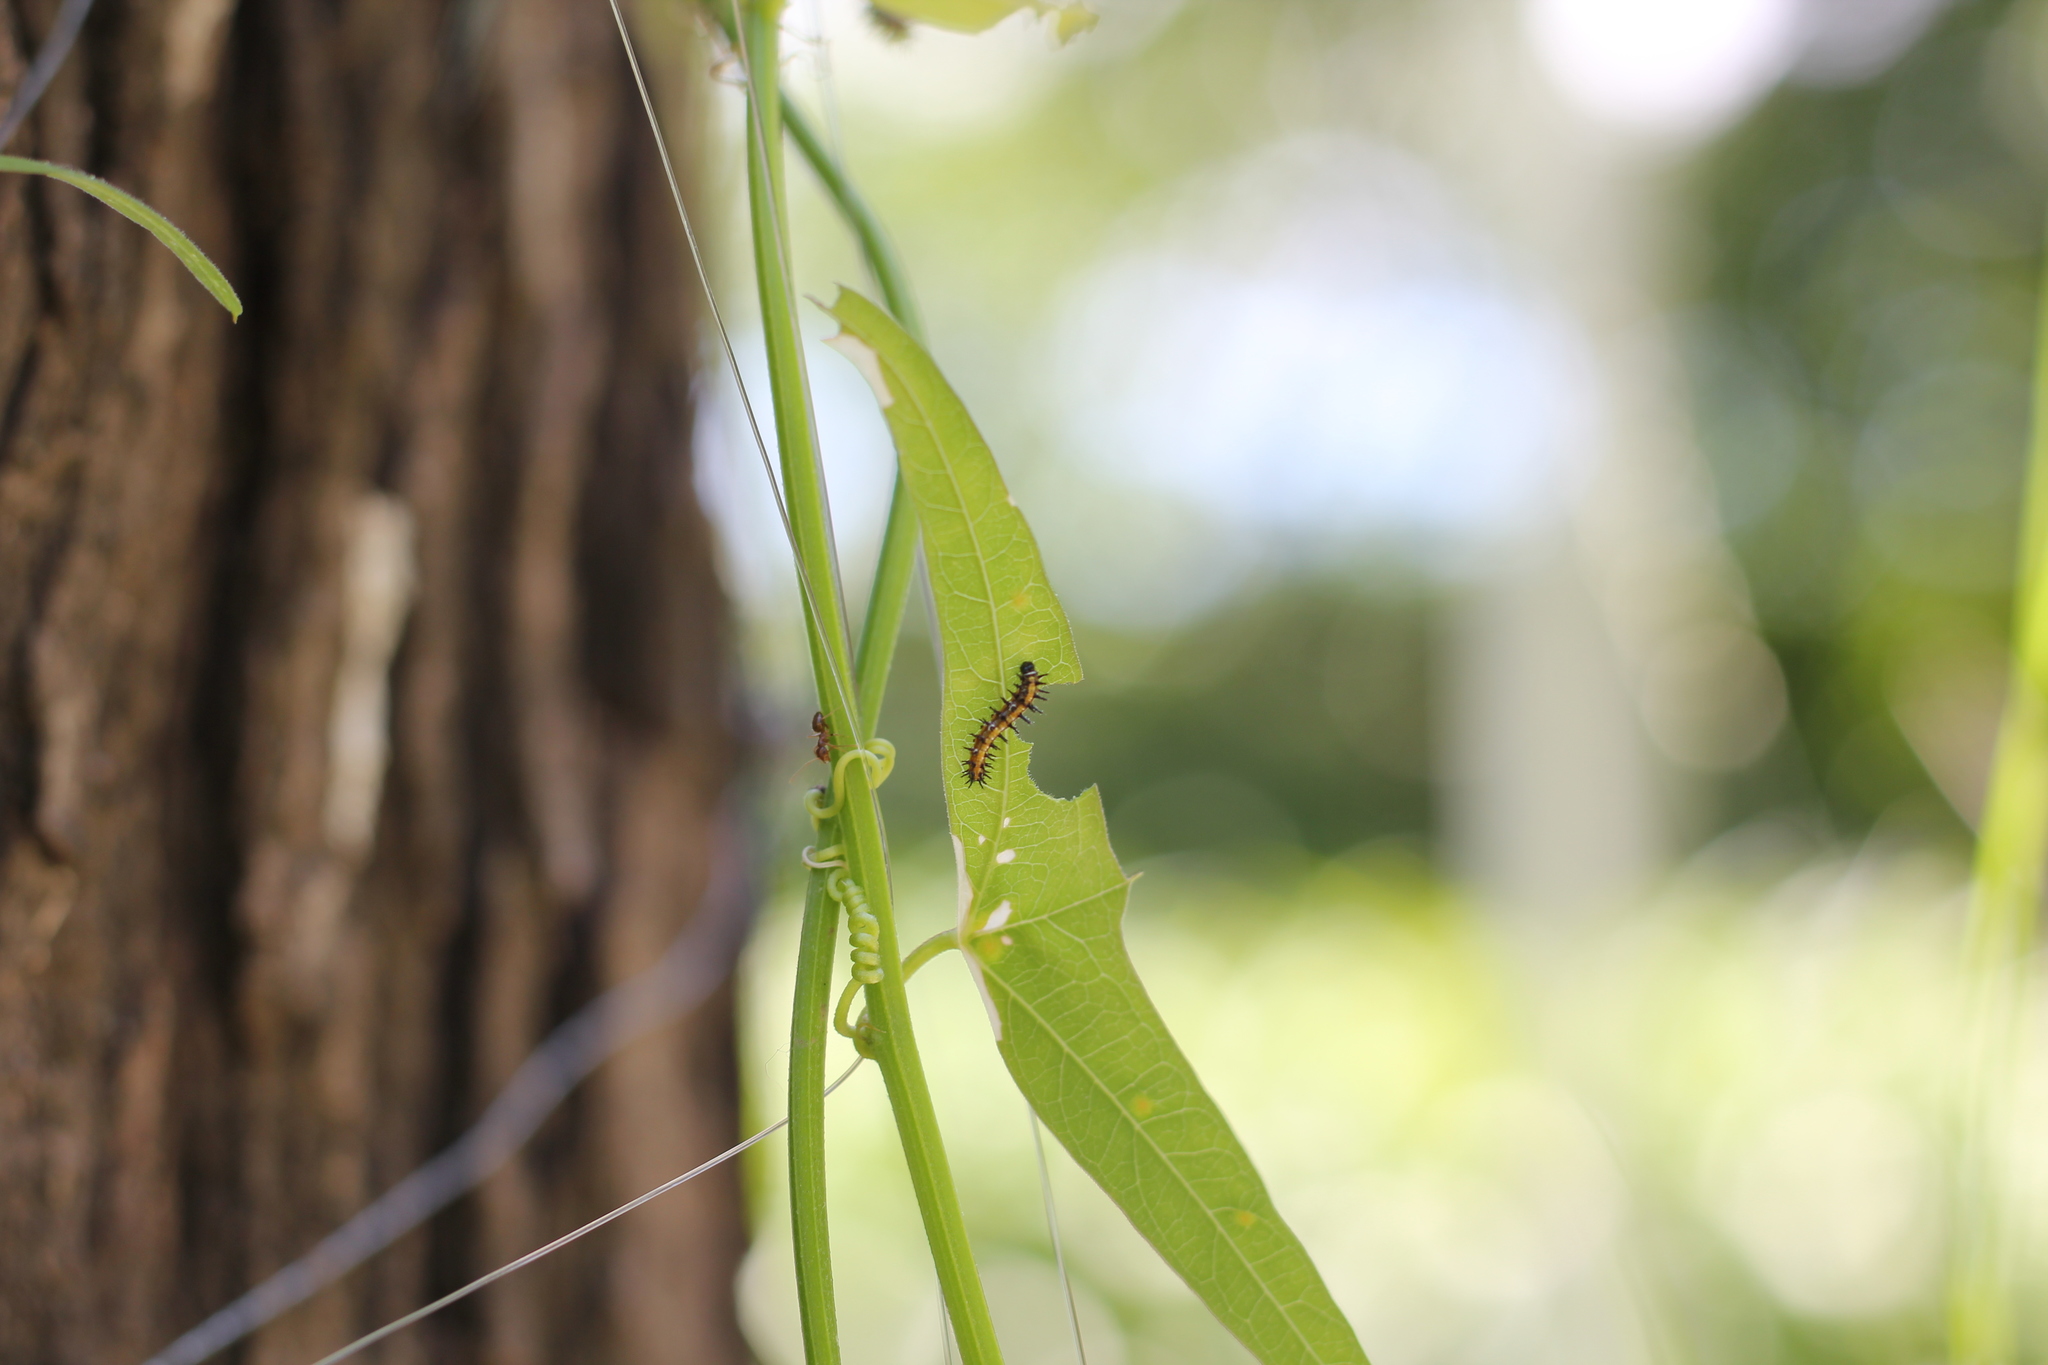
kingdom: Animalia
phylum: Arthropoda
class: Insecta
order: Lepidoptera
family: Nymphalidae
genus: Dione
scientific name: Dione vanillae
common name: Gulf fritillary
